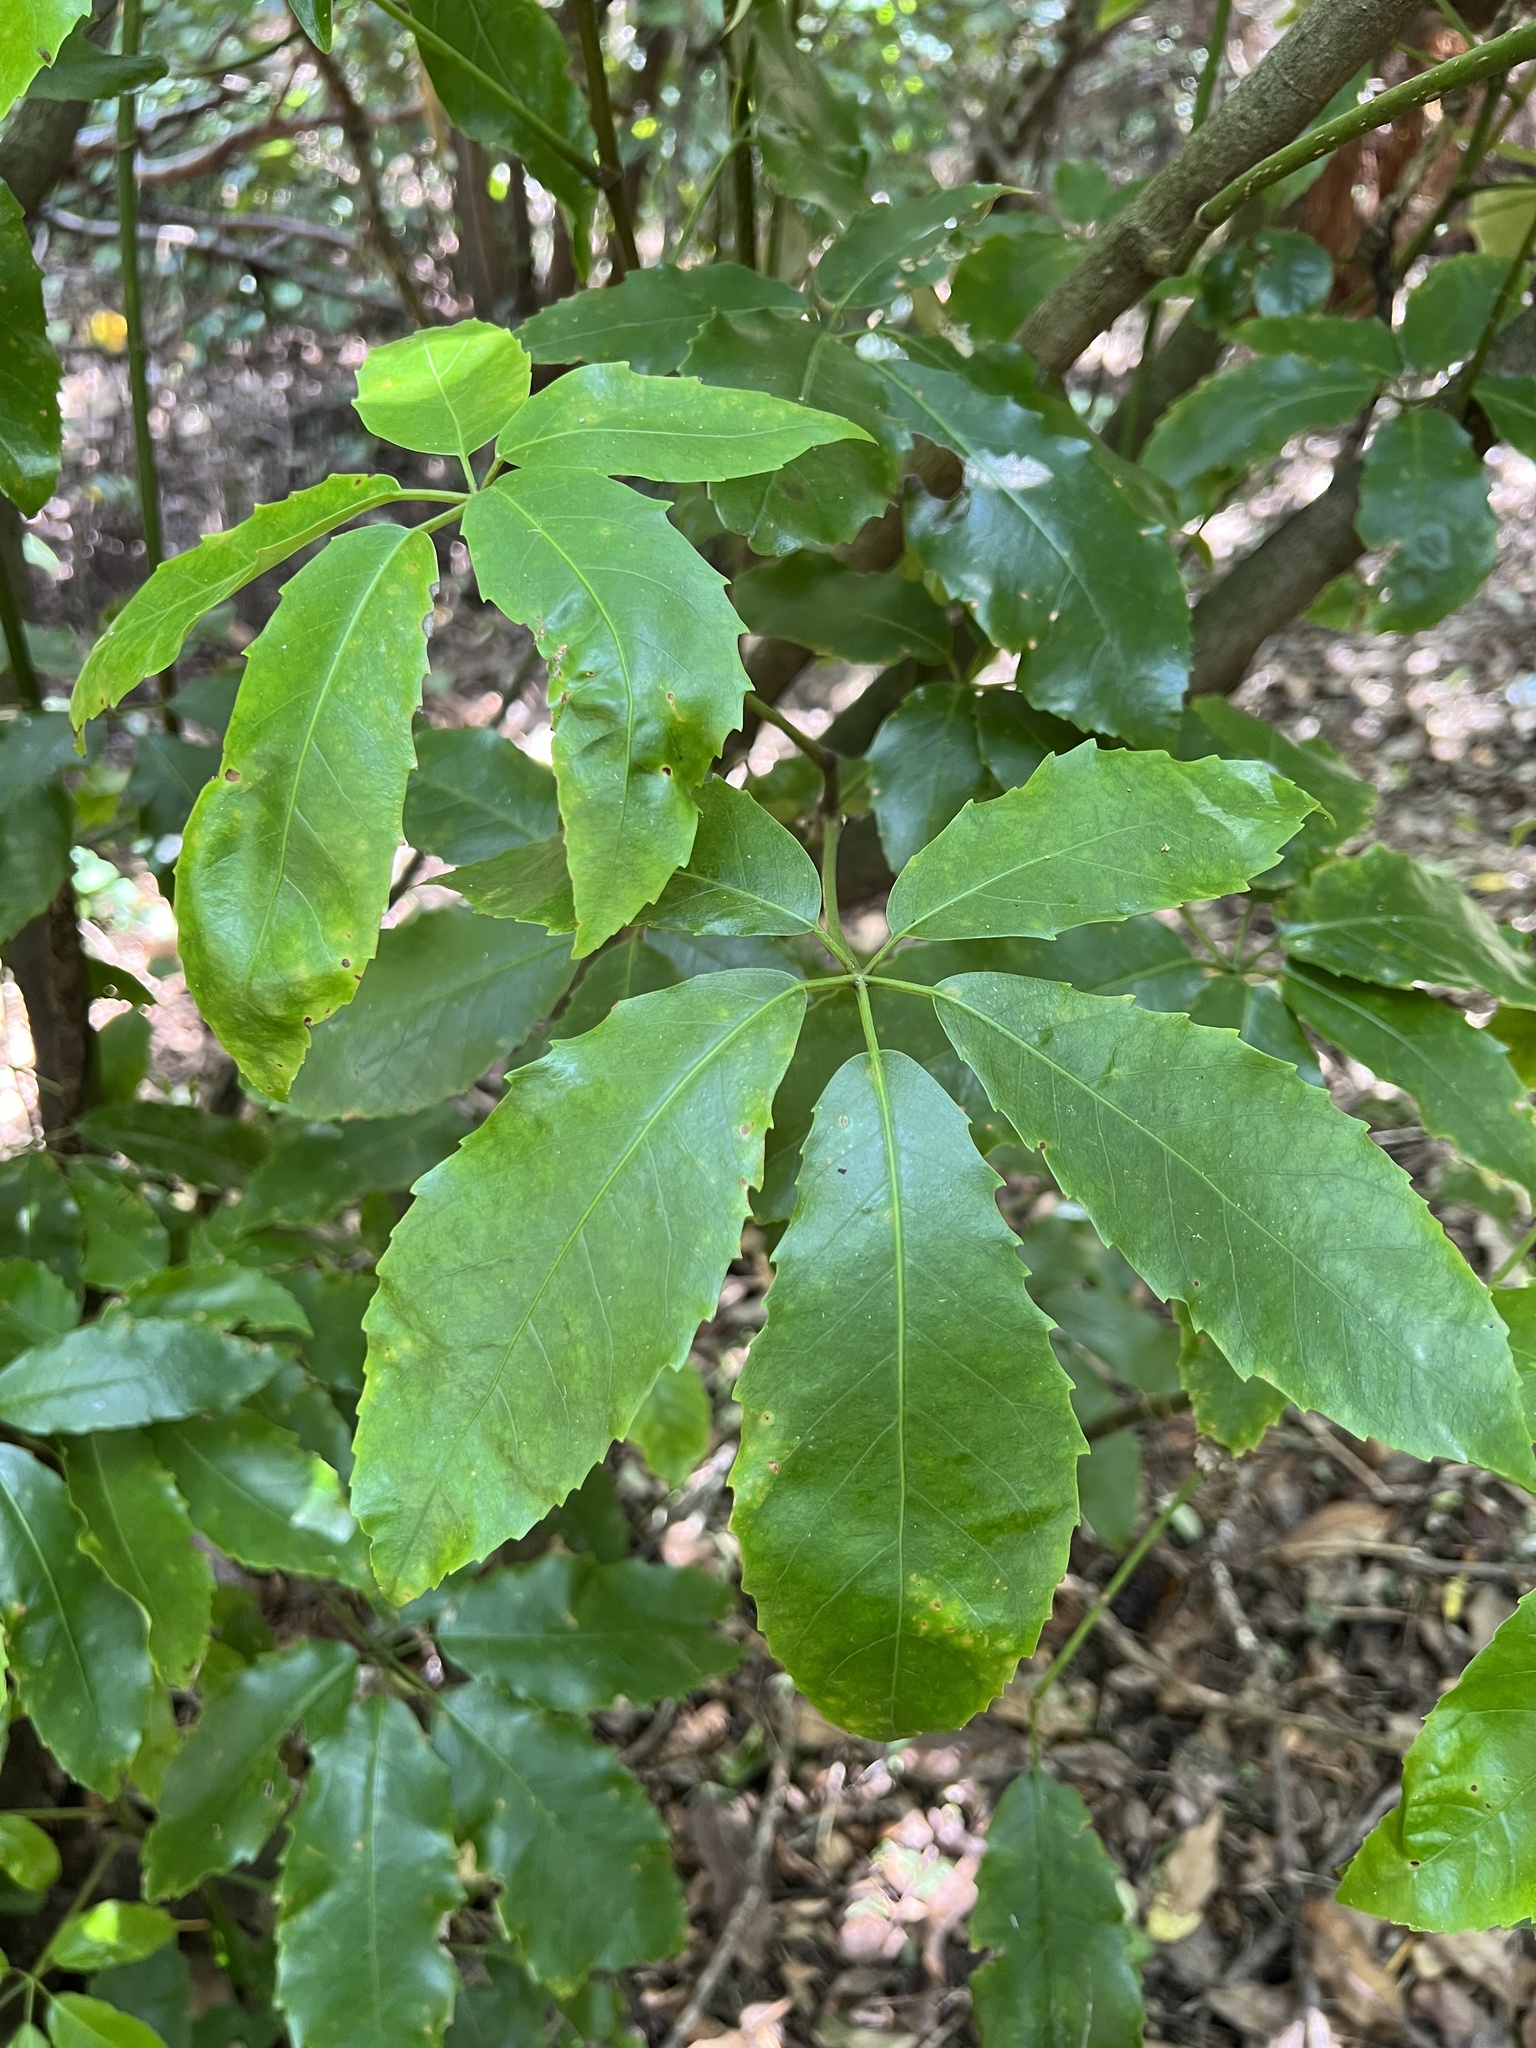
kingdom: Plantae
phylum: Tracheophyta
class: Magnoliopsida
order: Apiales
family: Araliaceae
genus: Neopanax
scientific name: Neopanax arboreus
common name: Five-fingers
